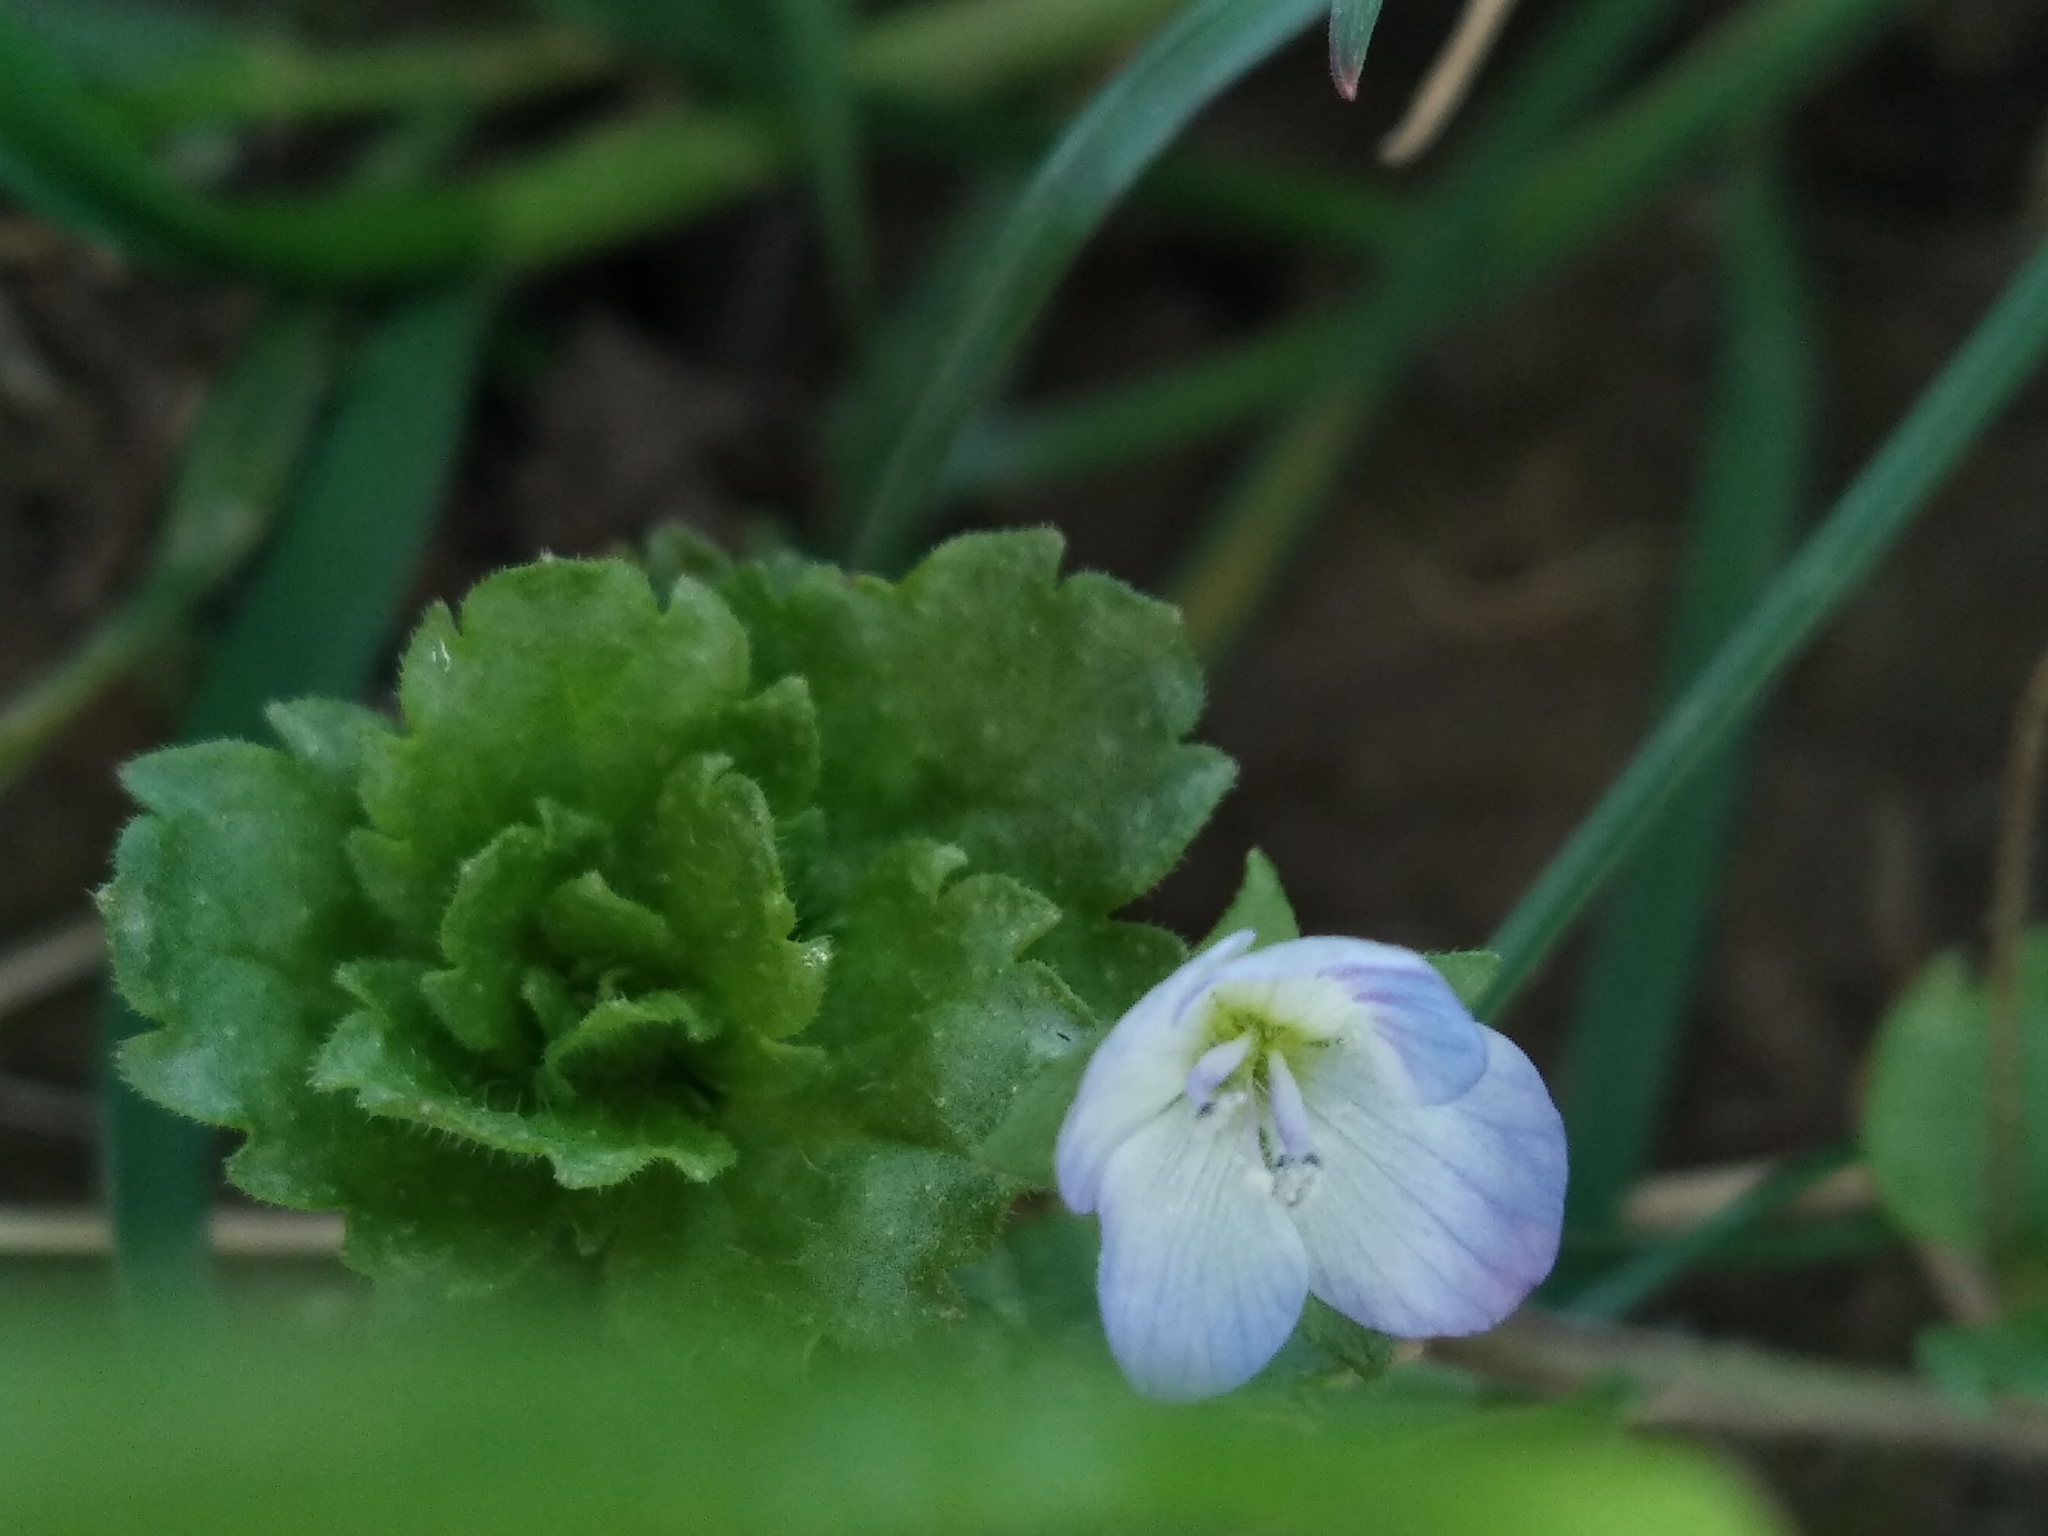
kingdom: Plantae
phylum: Tracheophyta
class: Magnoliopsida
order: Lamiales
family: Plantaginaceae
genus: Veronica
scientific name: Veronica persica
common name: Common field-speedwell
